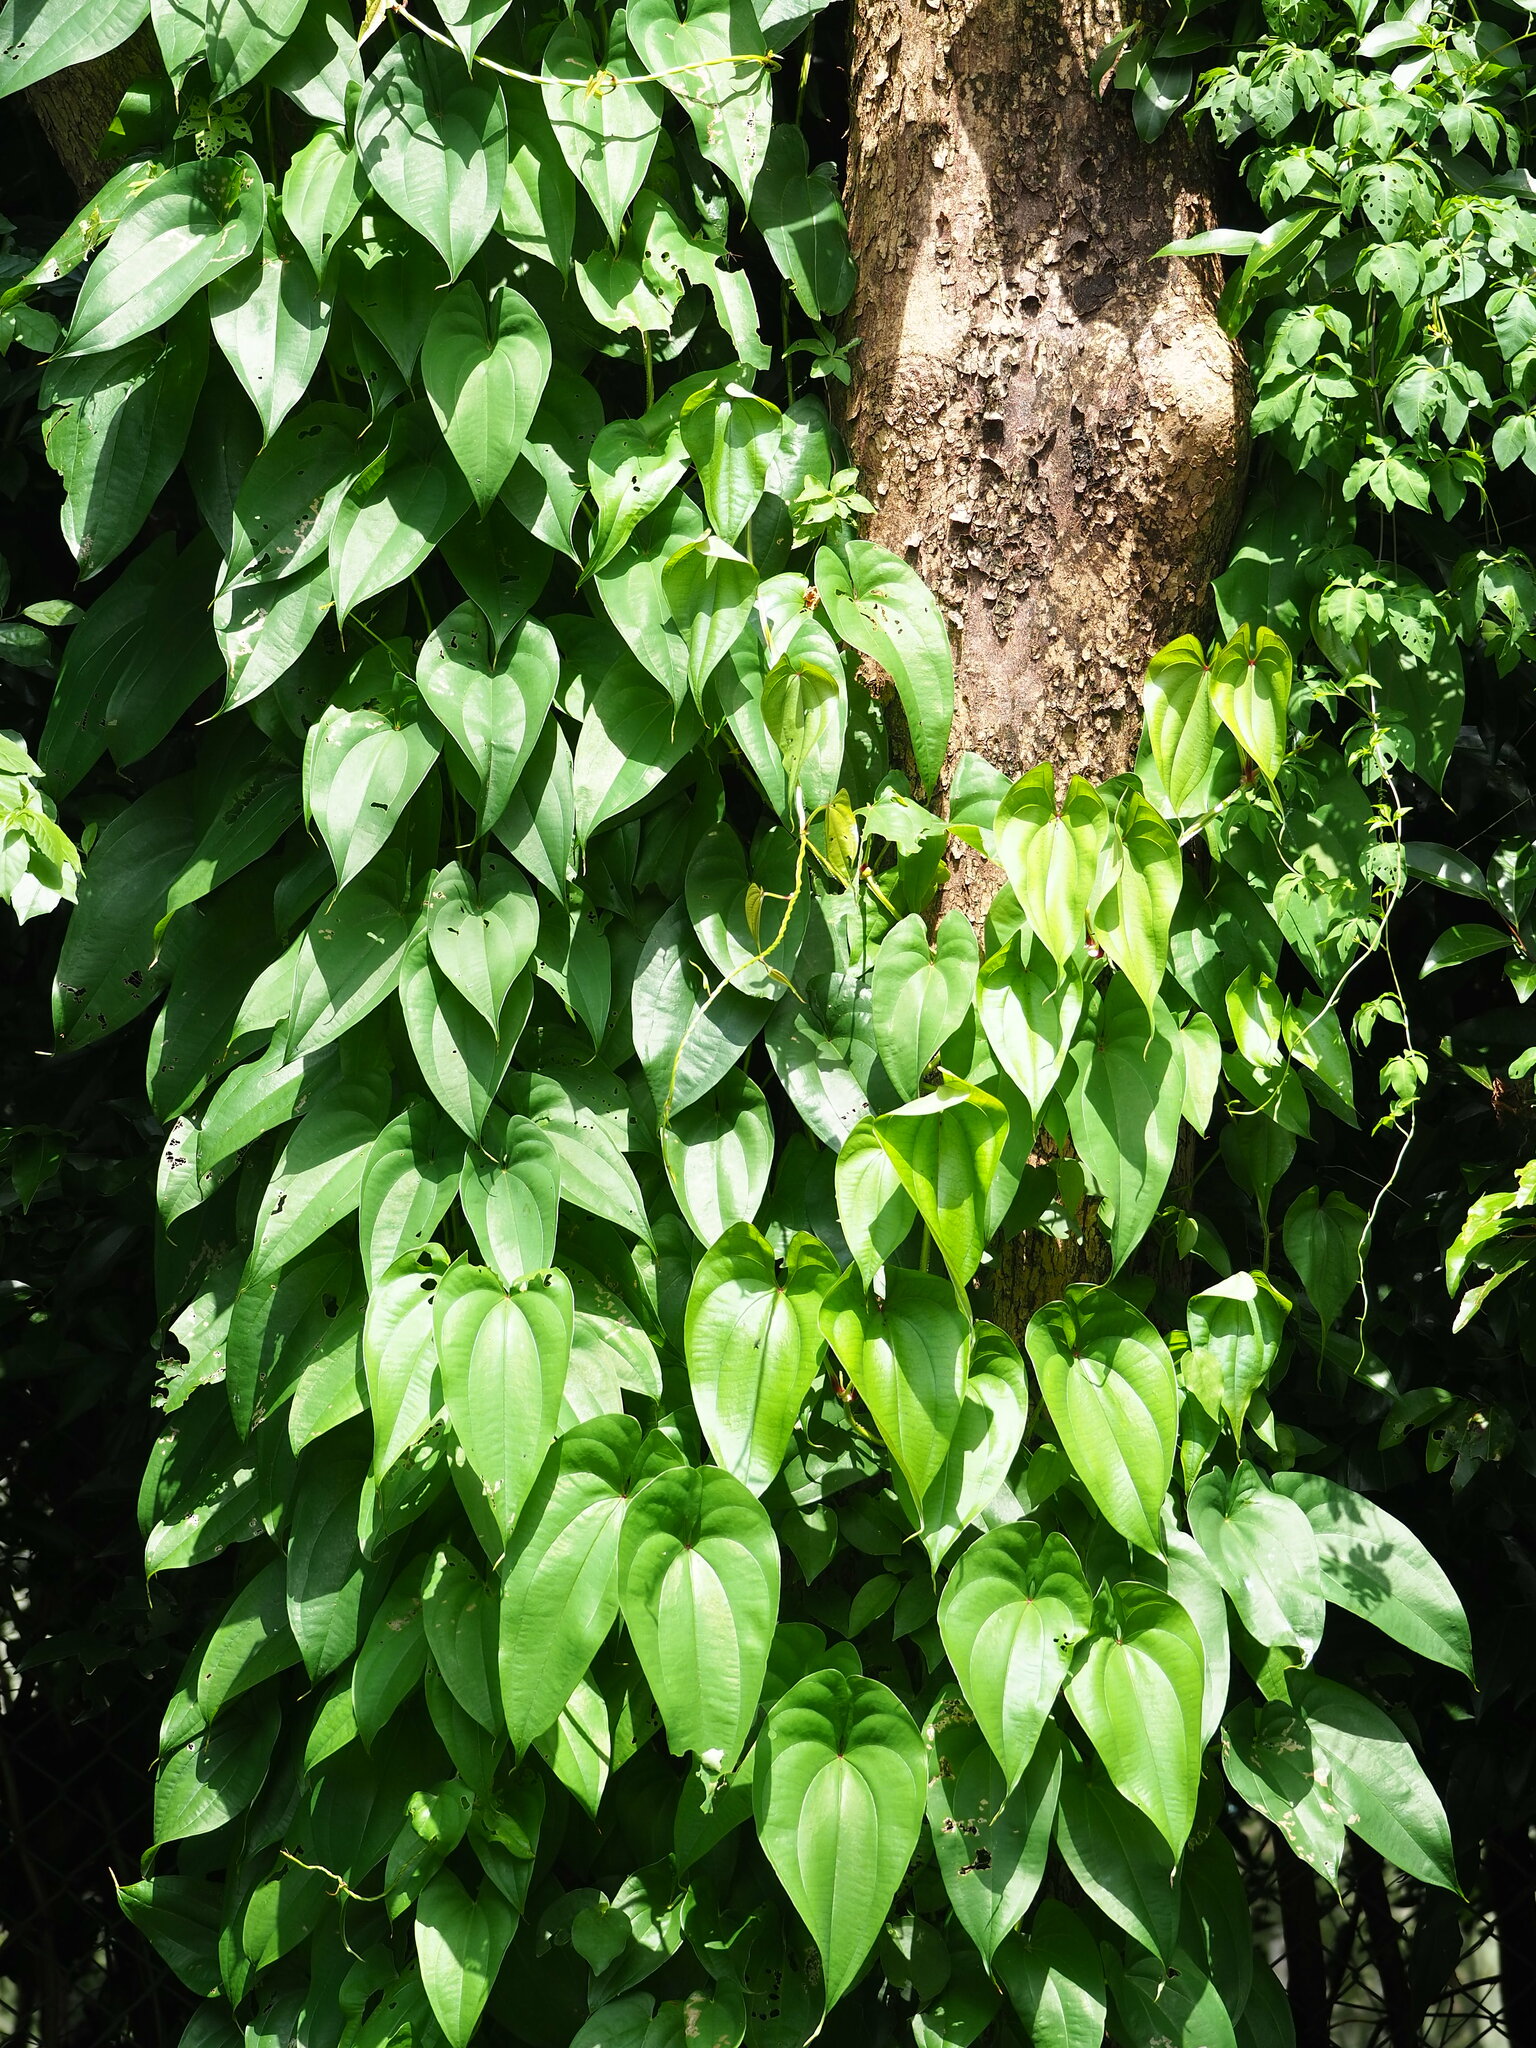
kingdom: Plantae
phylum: Tracheophyta
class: Liliopsida
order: Dioscoreales
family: Dioscoreaceae
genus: Dioscorea
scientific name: Dioscorea alata
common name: Water yam
